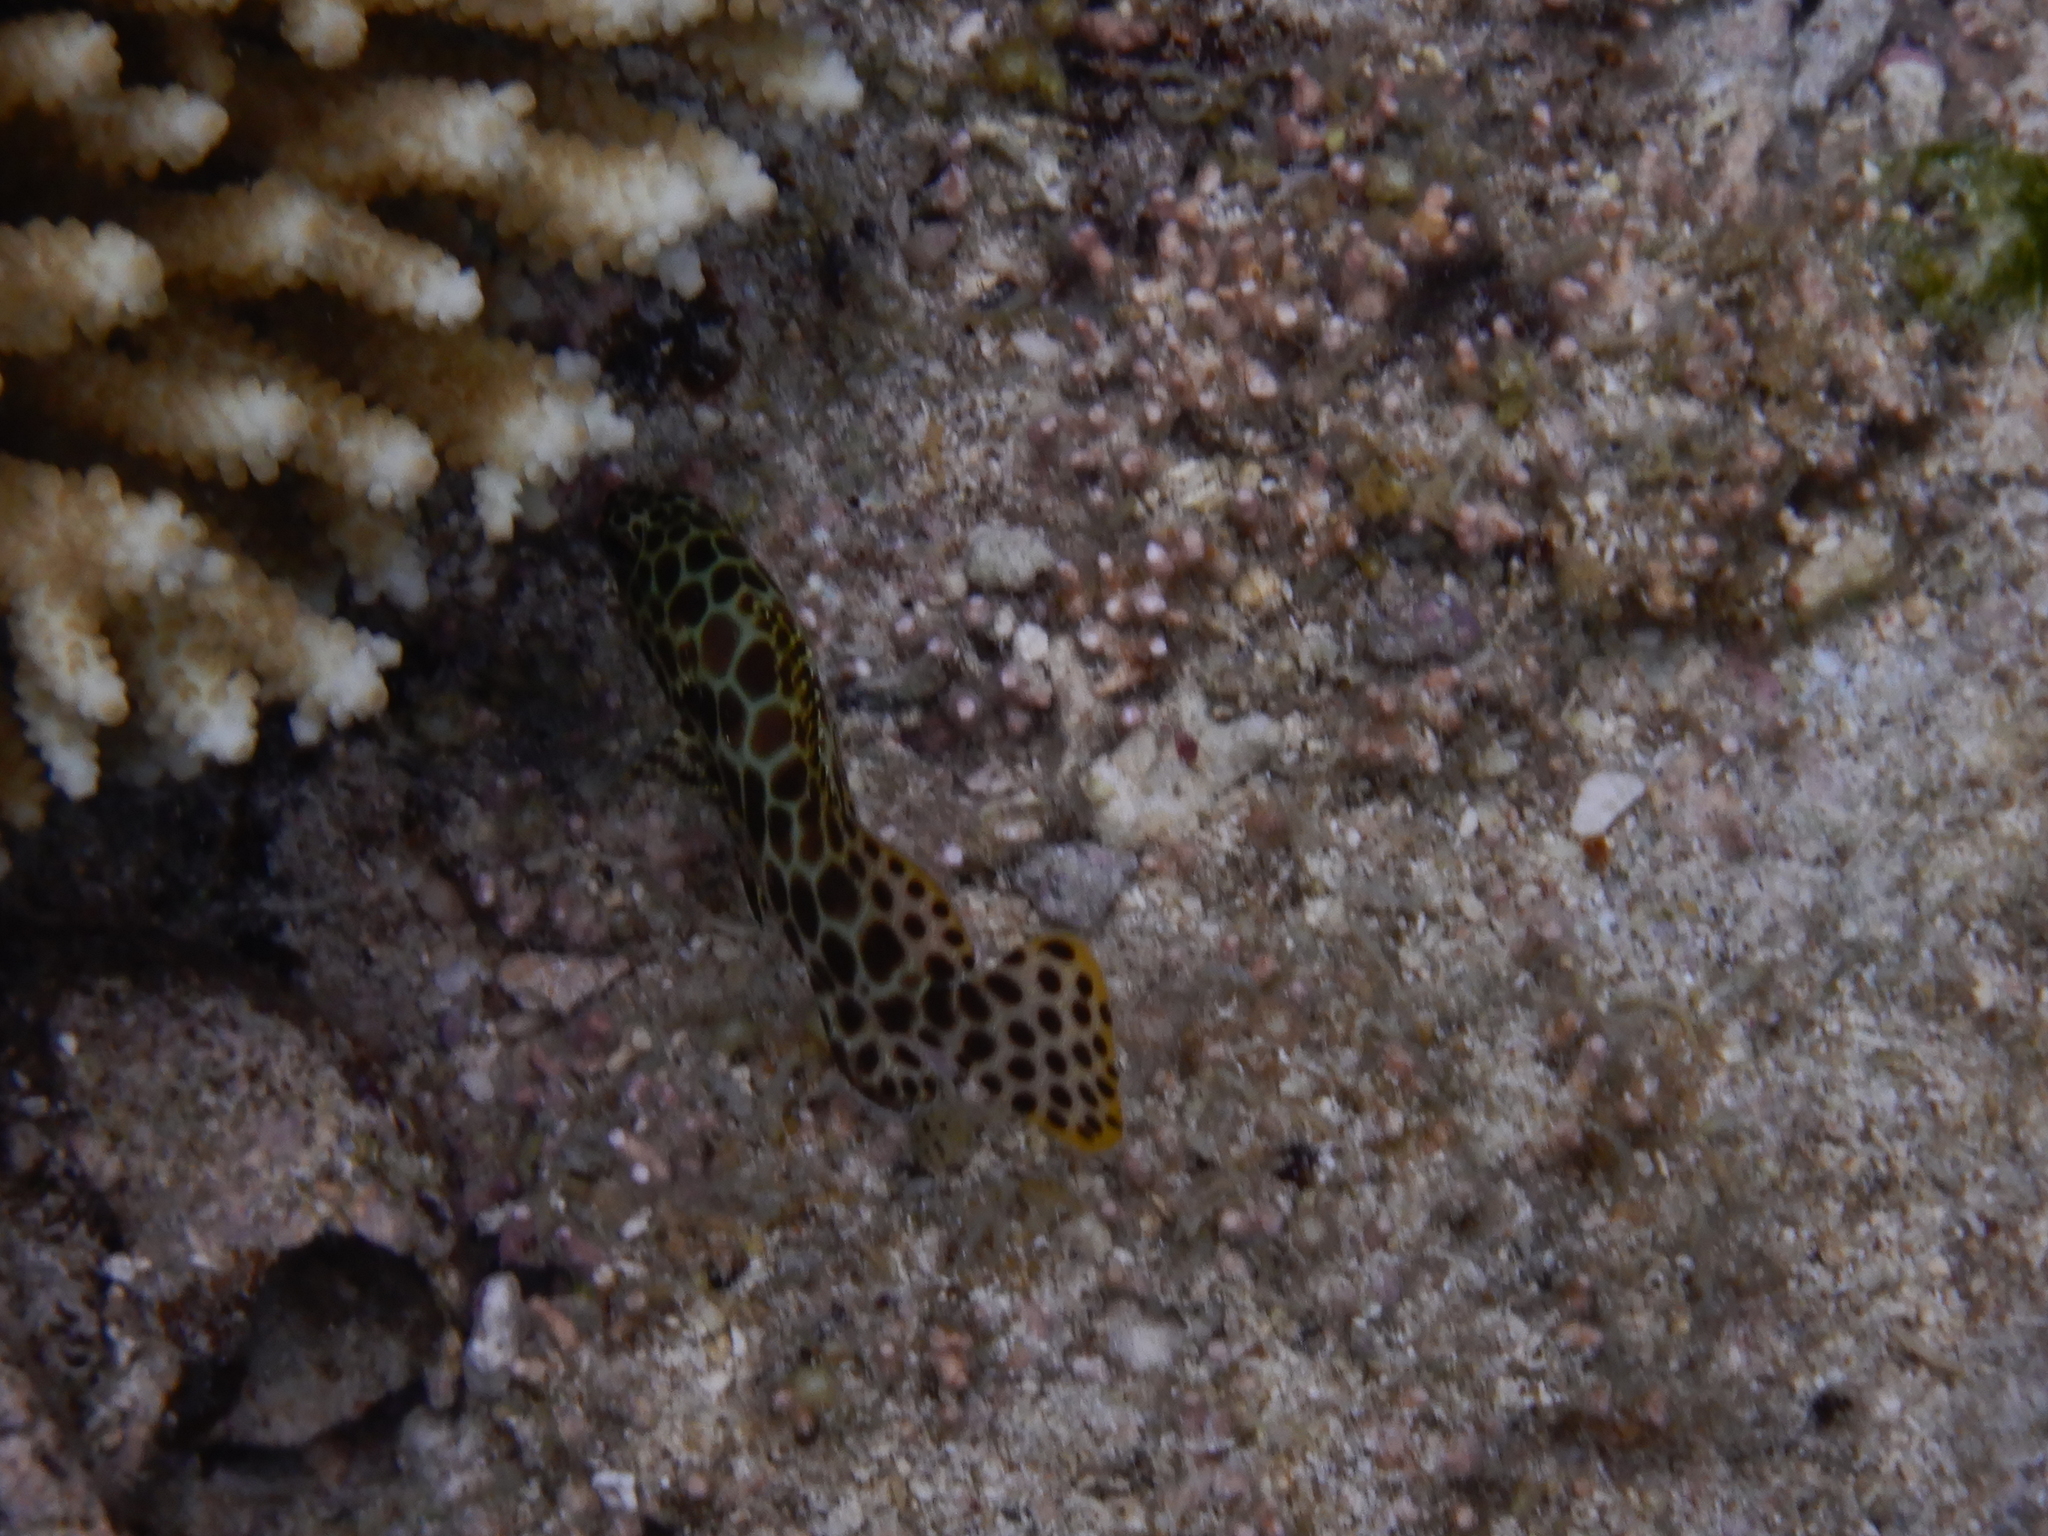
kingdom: Animalia
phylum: Chordata
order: Perciformes
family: Serranidae
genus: Epinephelus
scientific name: Epinephelus merra
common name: Honeycomb grouper
